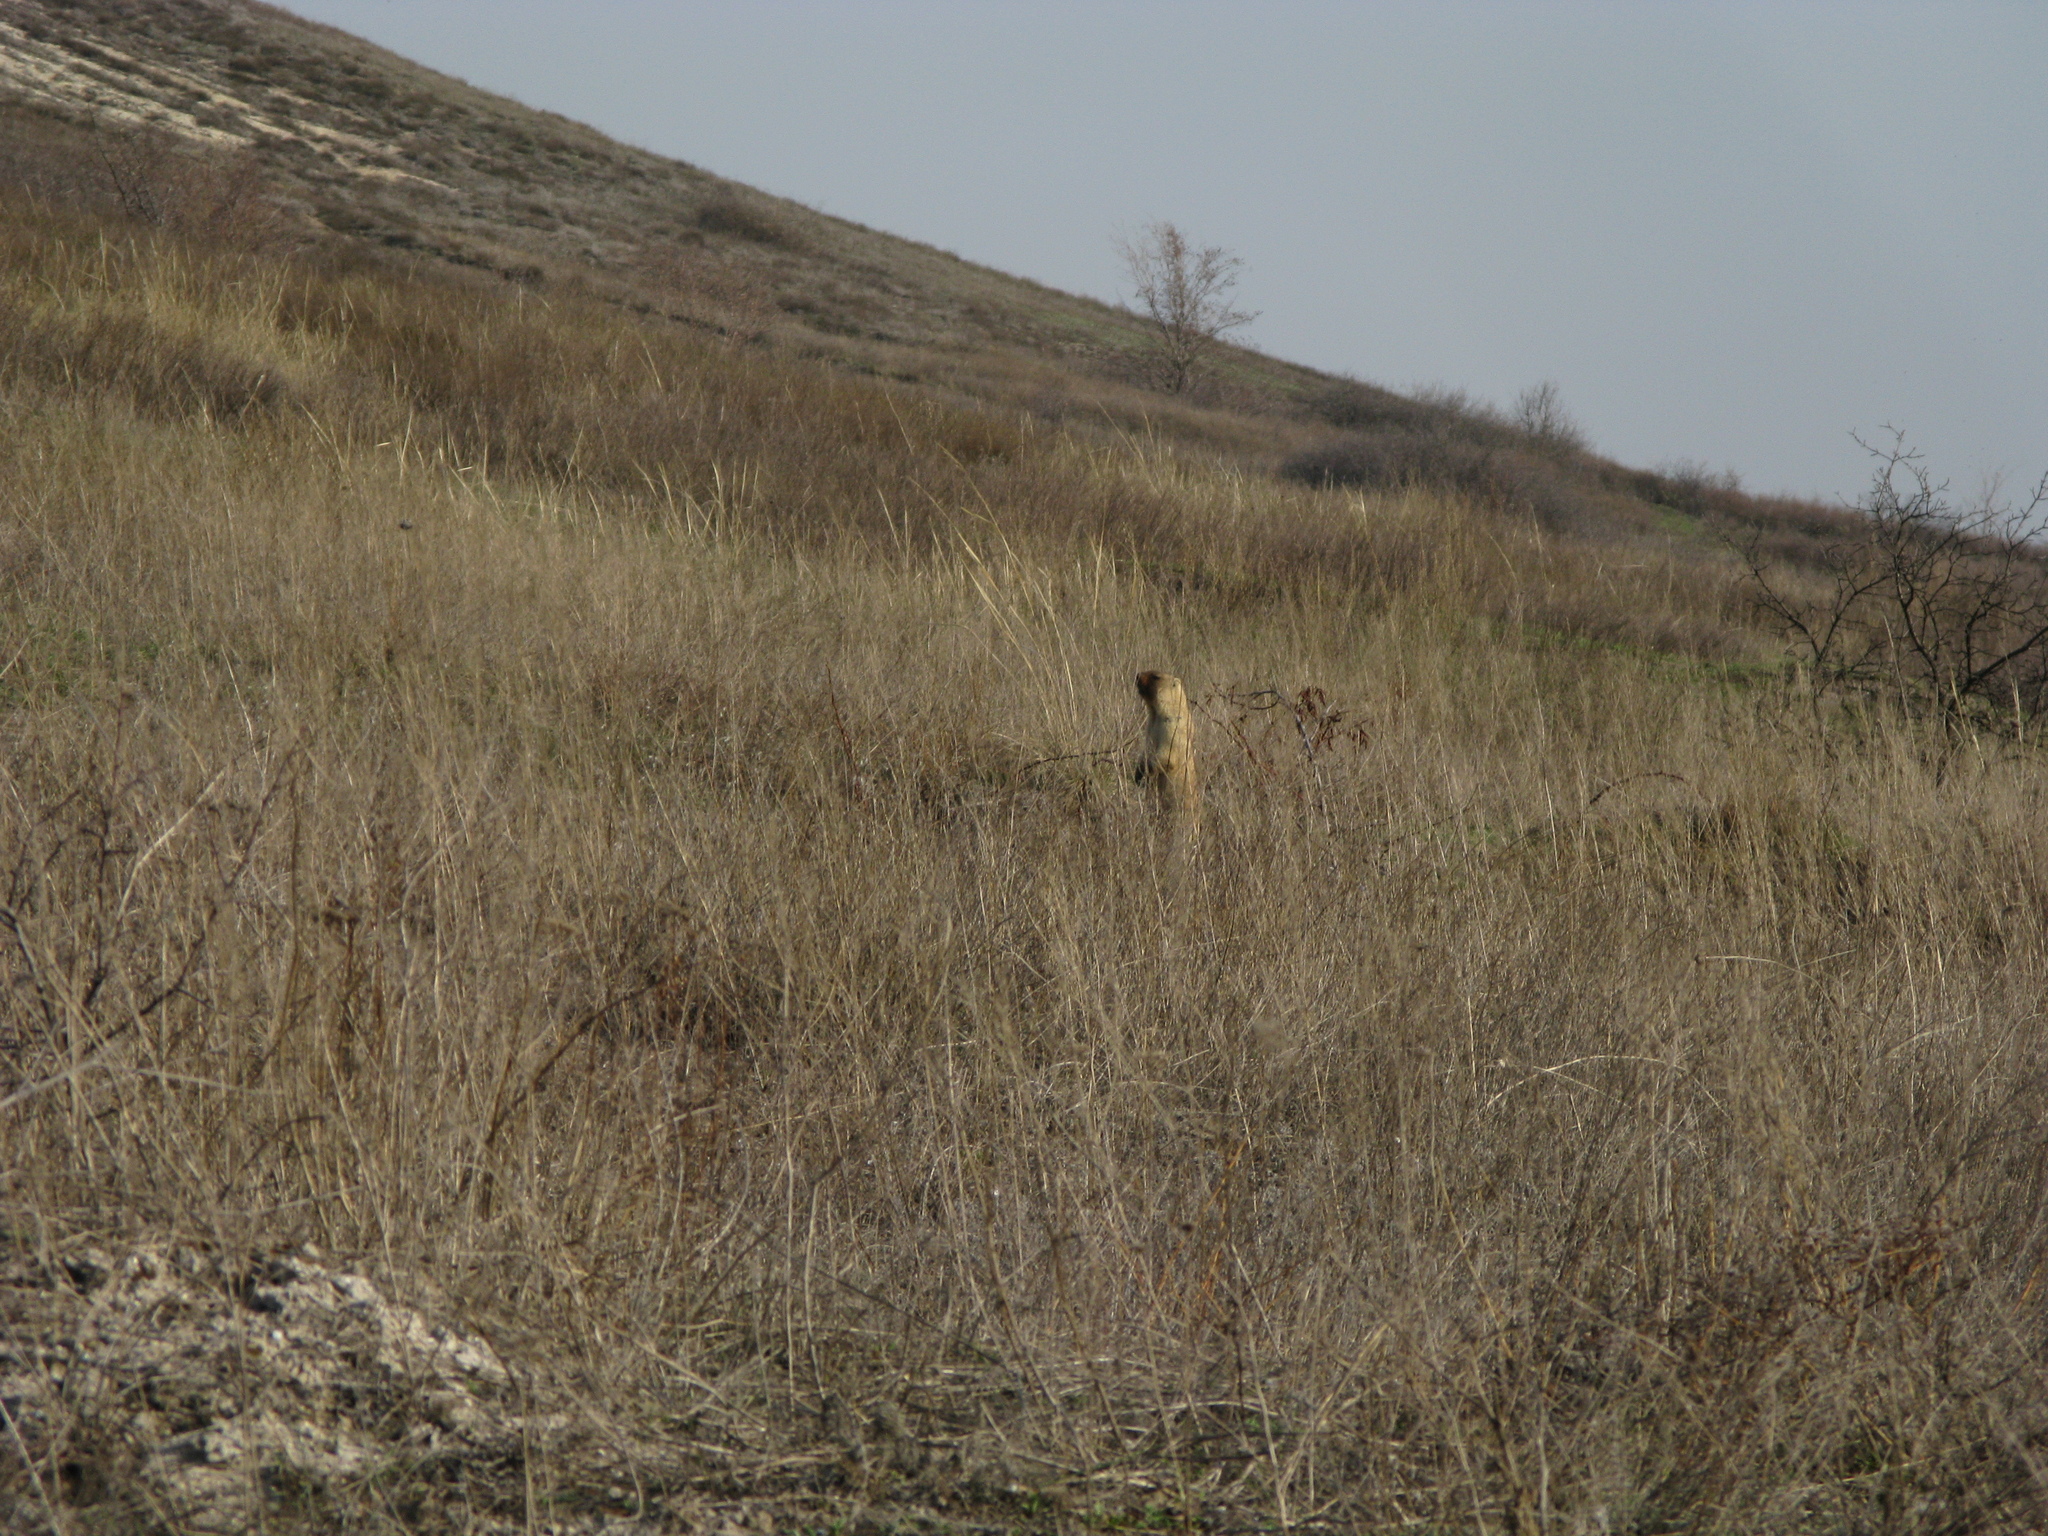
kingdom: Animalia
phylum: Chordata
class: Mammalia
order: Rodentia
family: Sciuridae
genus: Marmota
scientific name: Marmota bobak
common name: Bobak marmot
